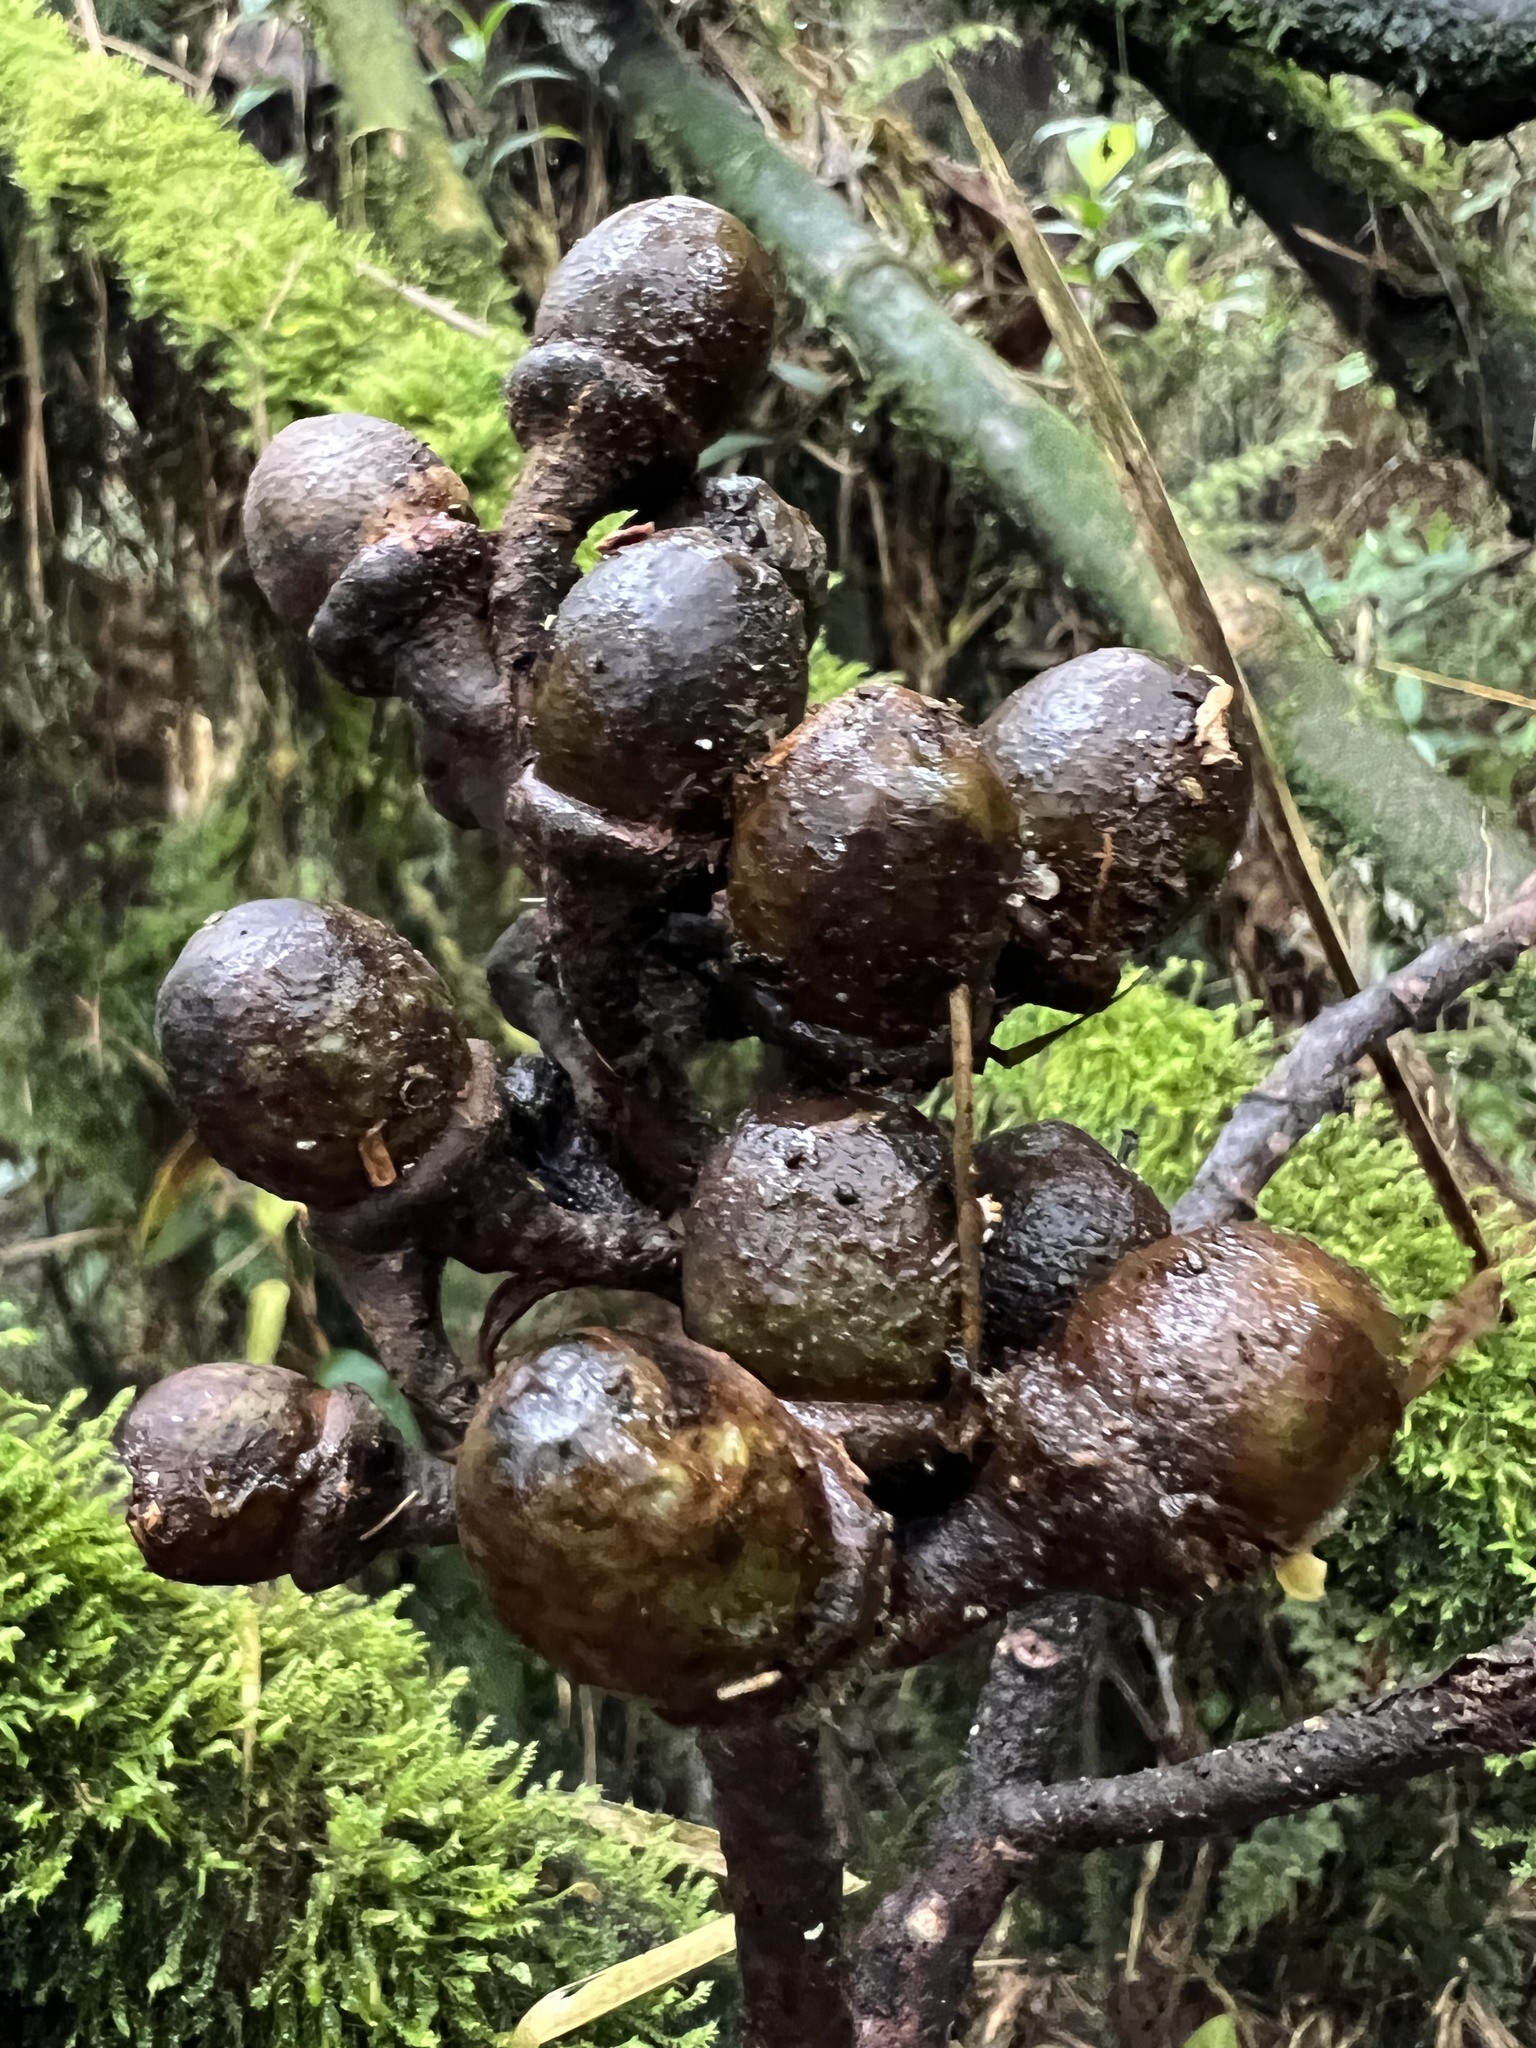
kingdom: Plantae
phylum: Tracheophyta
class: Magnoliopsida
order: Laurales
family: Lauraceae
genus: Andea
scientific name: Andea velutina
